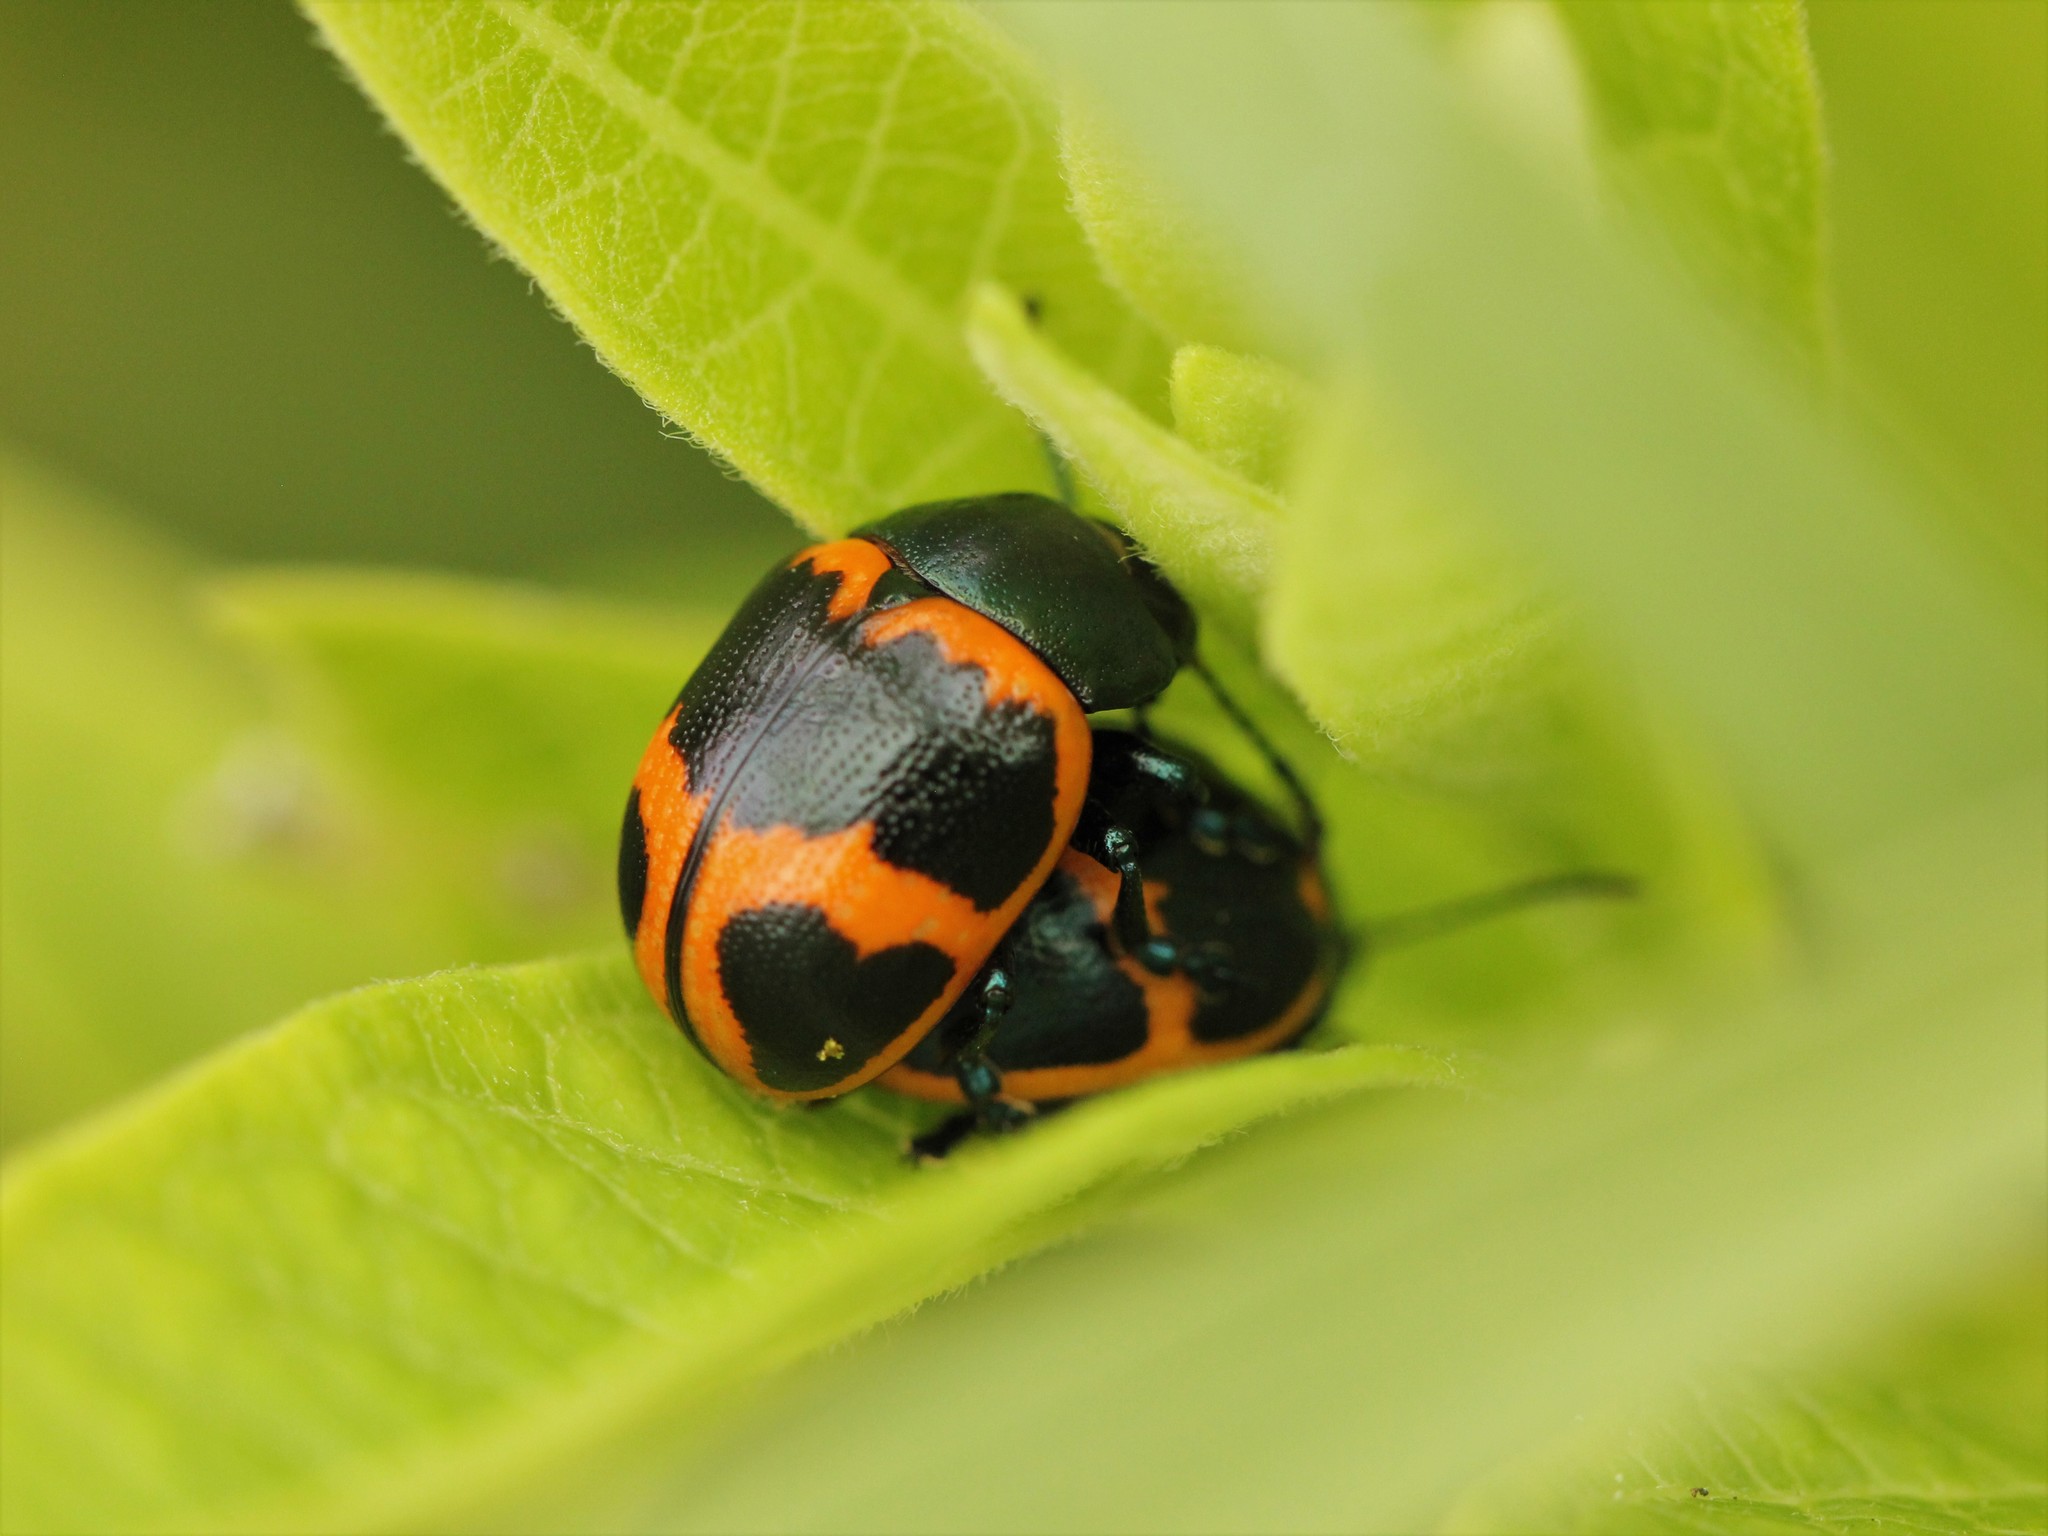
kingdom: Animalia
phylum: Arthropoda
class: Insecta
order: Coleoptera
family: Chrysomelidae
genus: Labidomera
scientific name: Labidomera clivicollis
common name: Swamp milkweed leaf beetle
